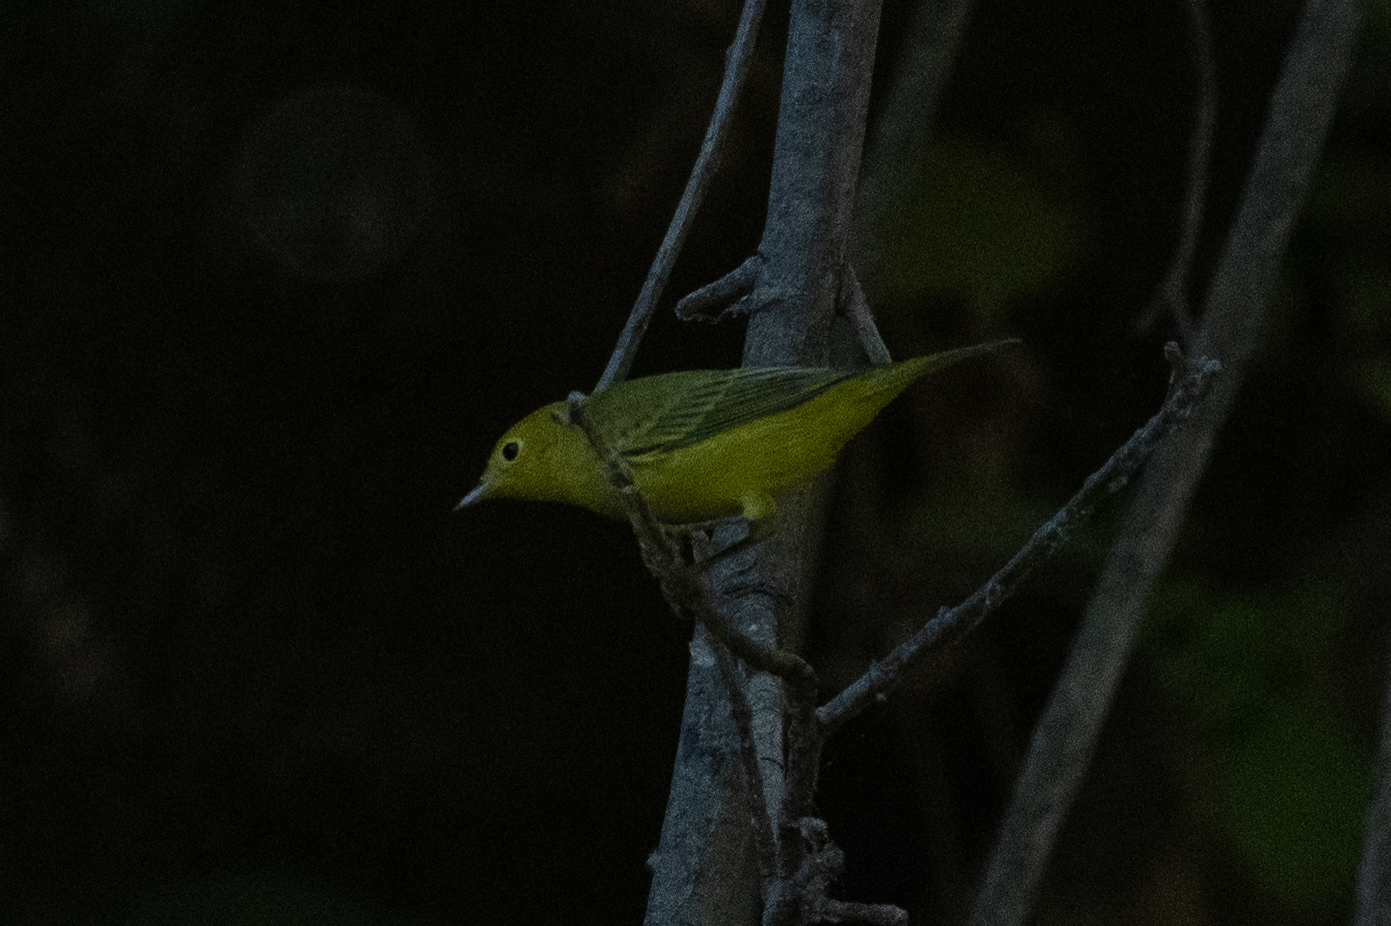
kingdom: Animalia
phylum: Chordata
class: Aves
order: Passeriformes
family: Parulidae
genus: Setophaga
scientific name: Setophaga petechia
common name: Yellow warbler
